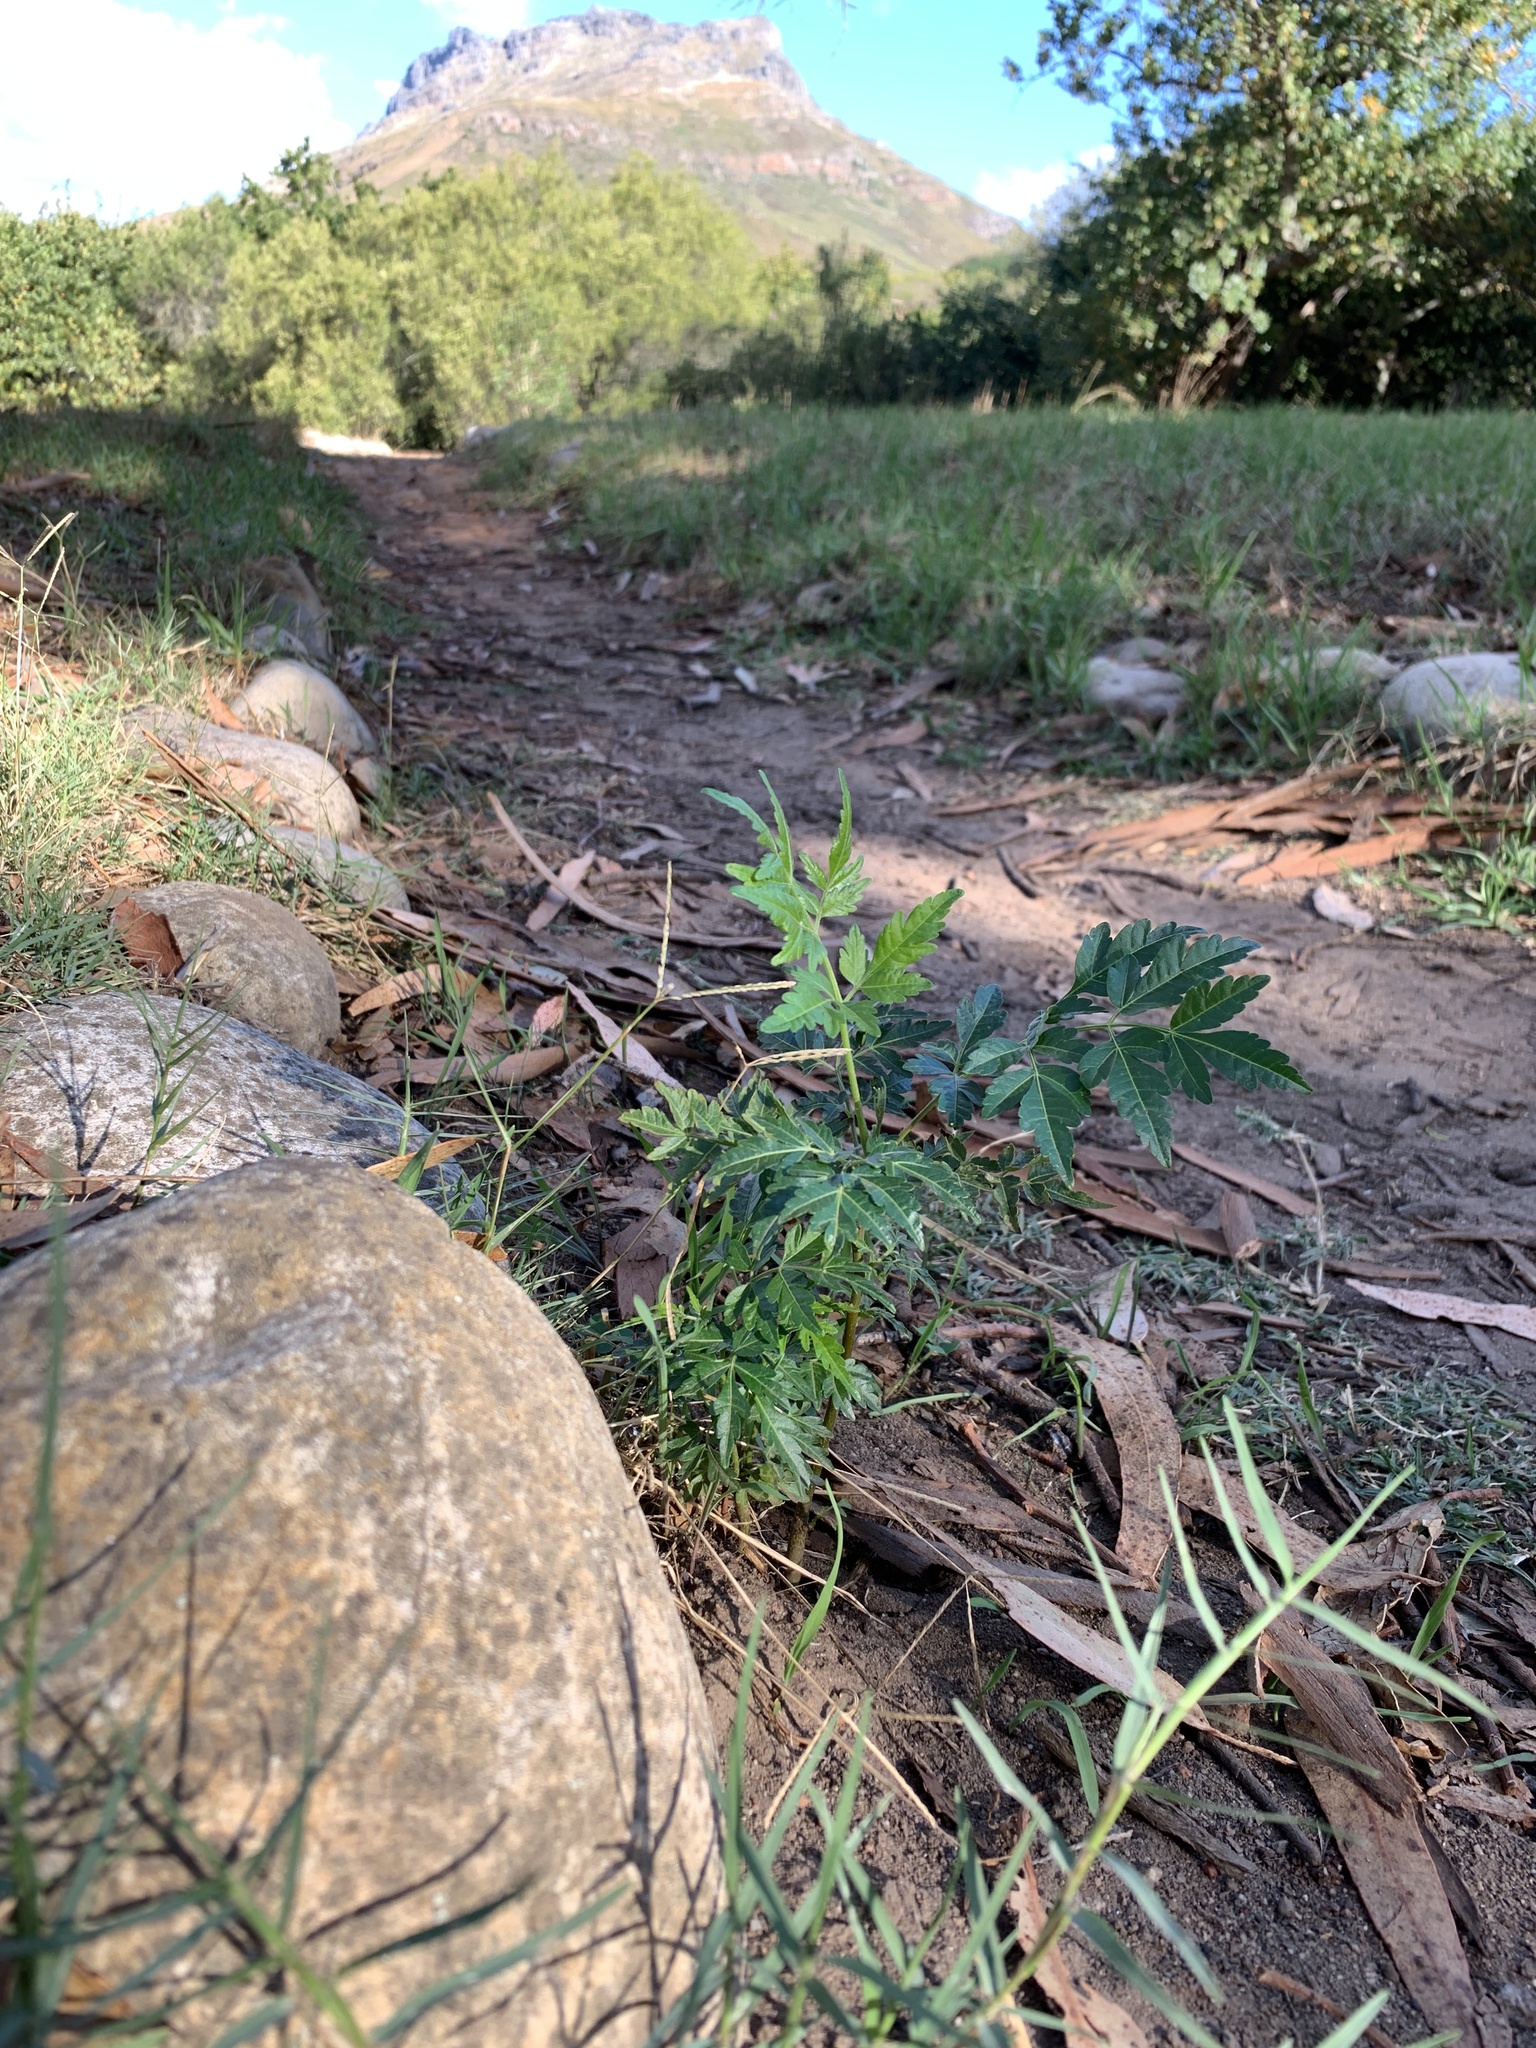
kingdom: Plantae
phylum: Tracheophyta
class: Magnoliopsida
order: Sapindales
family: Meliaceae
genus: Melia
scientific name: Melia azedarach
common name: Chinaberrytree
